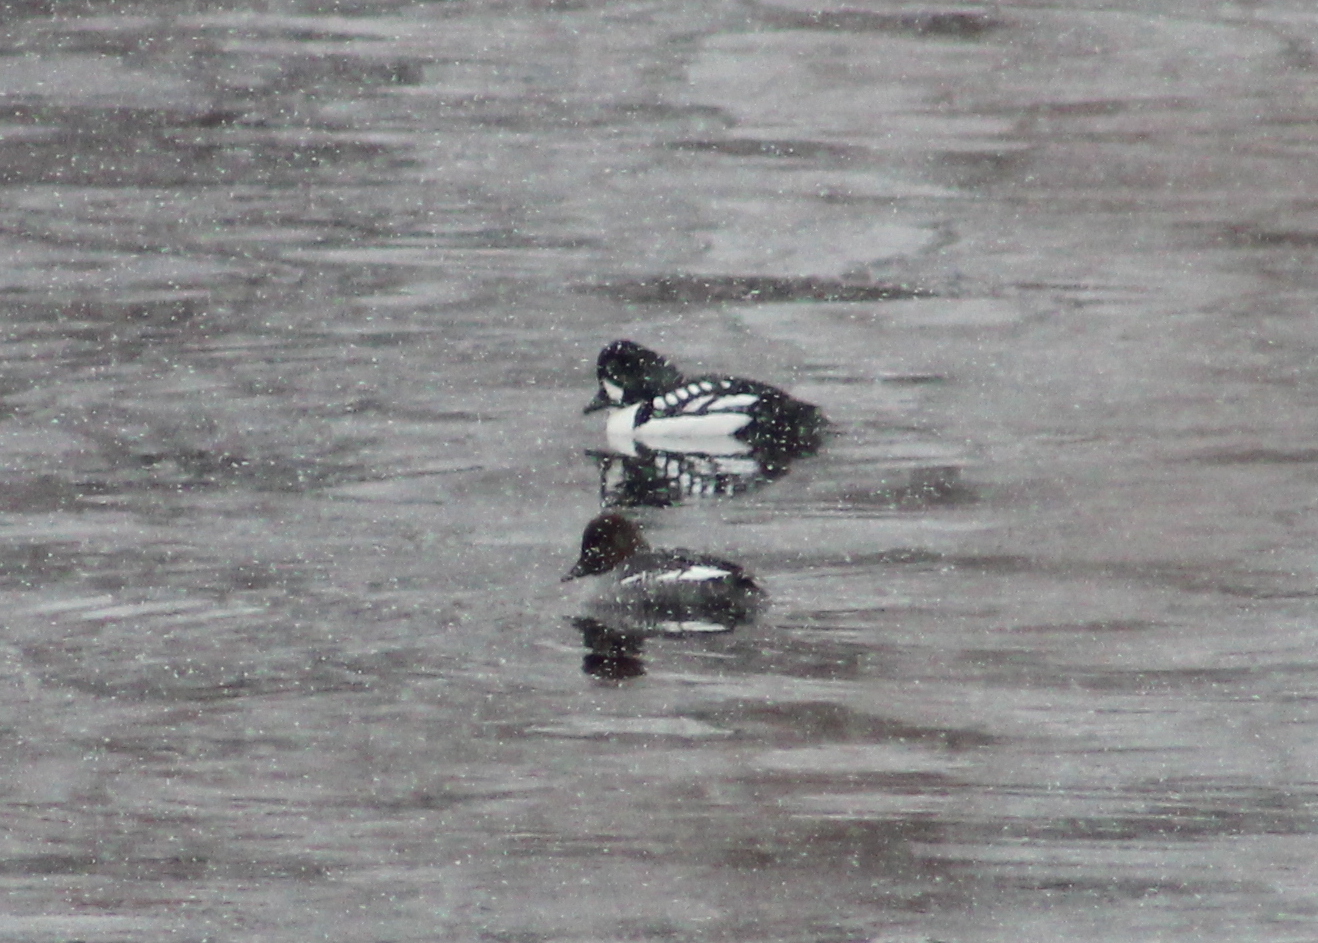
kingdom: Animalia
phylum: Chordata
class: Aves
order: Anseriformes
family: Anatidae
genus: Bucephala
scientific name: Bucephala islandica
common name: Barrow's goldeneye
